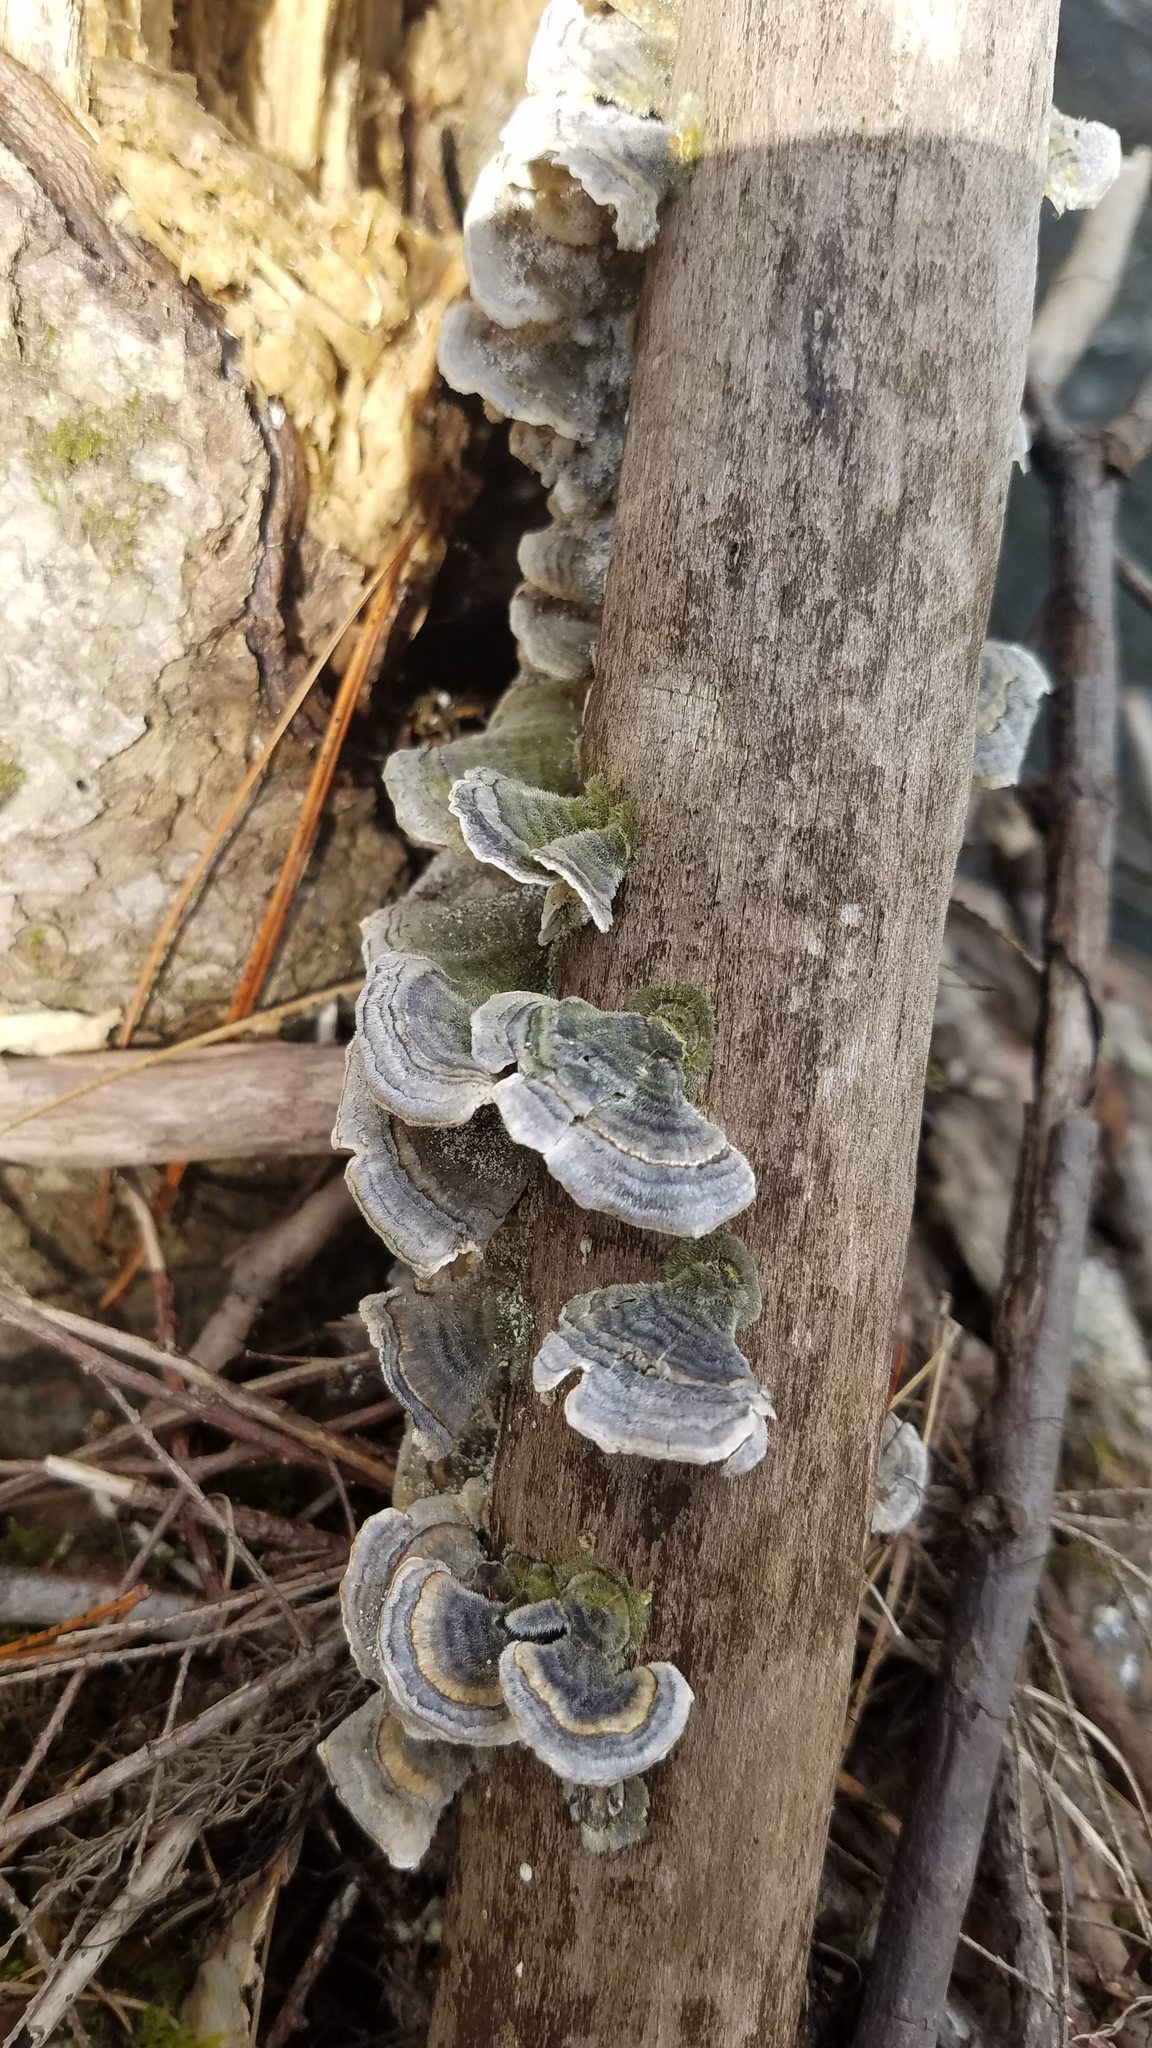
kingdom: Fungi
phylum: Basidiomycota
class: Agaricomycetes
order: Polyporales
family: Polyporaceae
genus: Trametes
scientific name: Trametes versicolor
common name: Turkeytail
